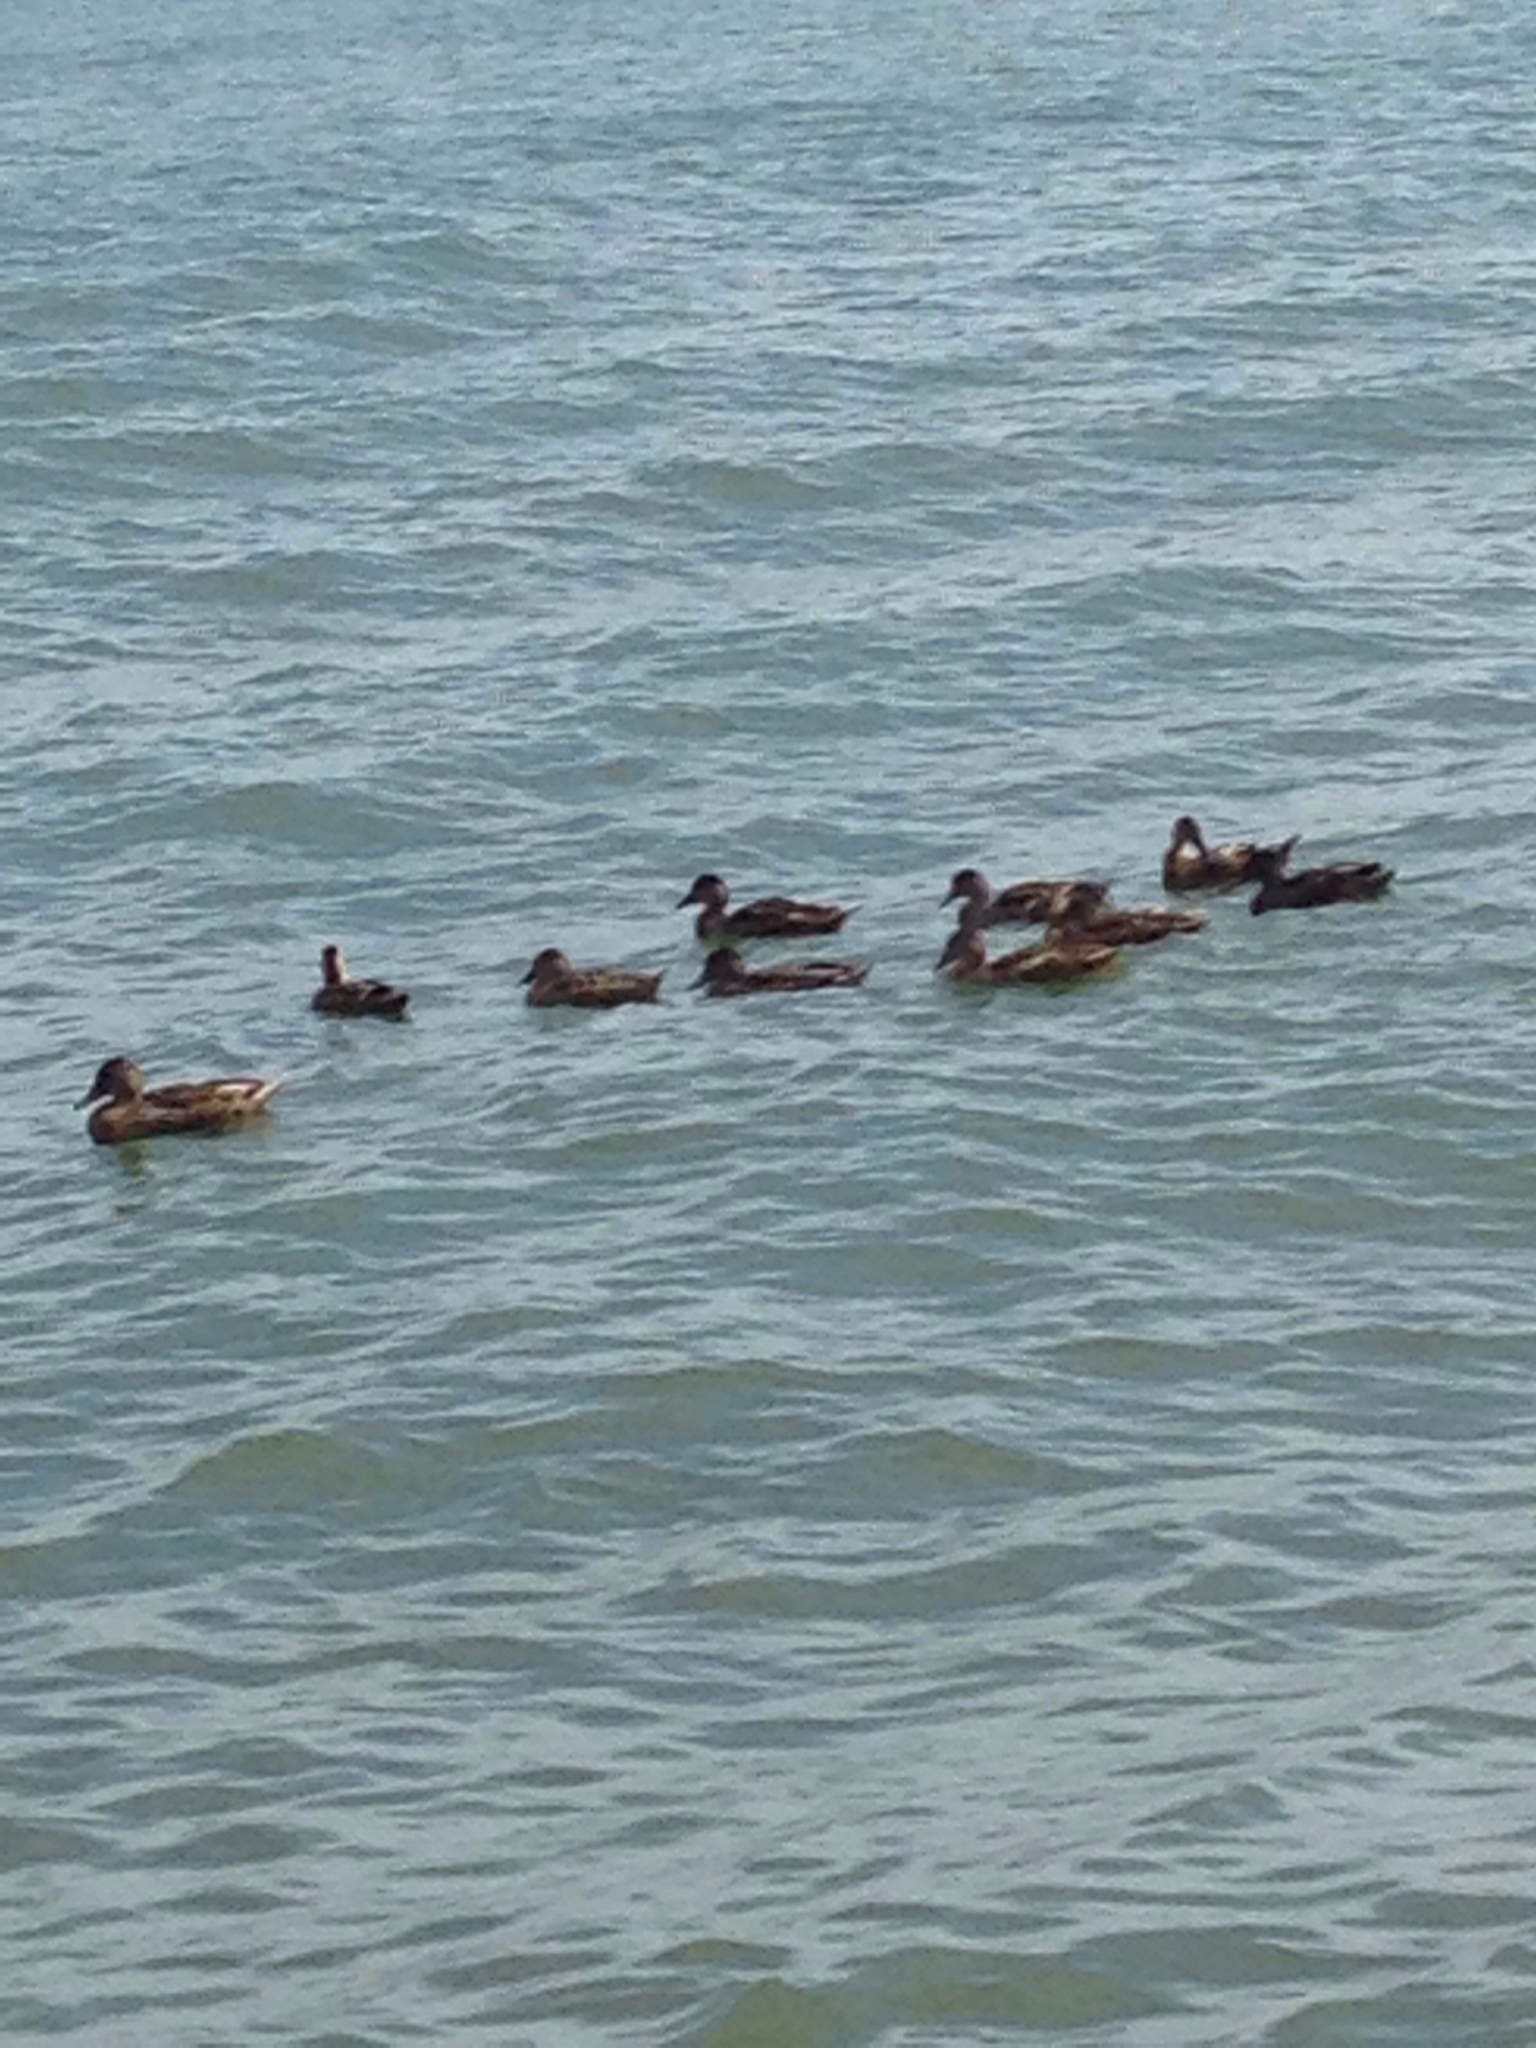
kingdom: Animalia
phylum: Chordata
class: Aves
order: Anseriformes
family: Anatidae
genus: Anas
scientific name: Anas platyrhynchos
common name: Mallard
